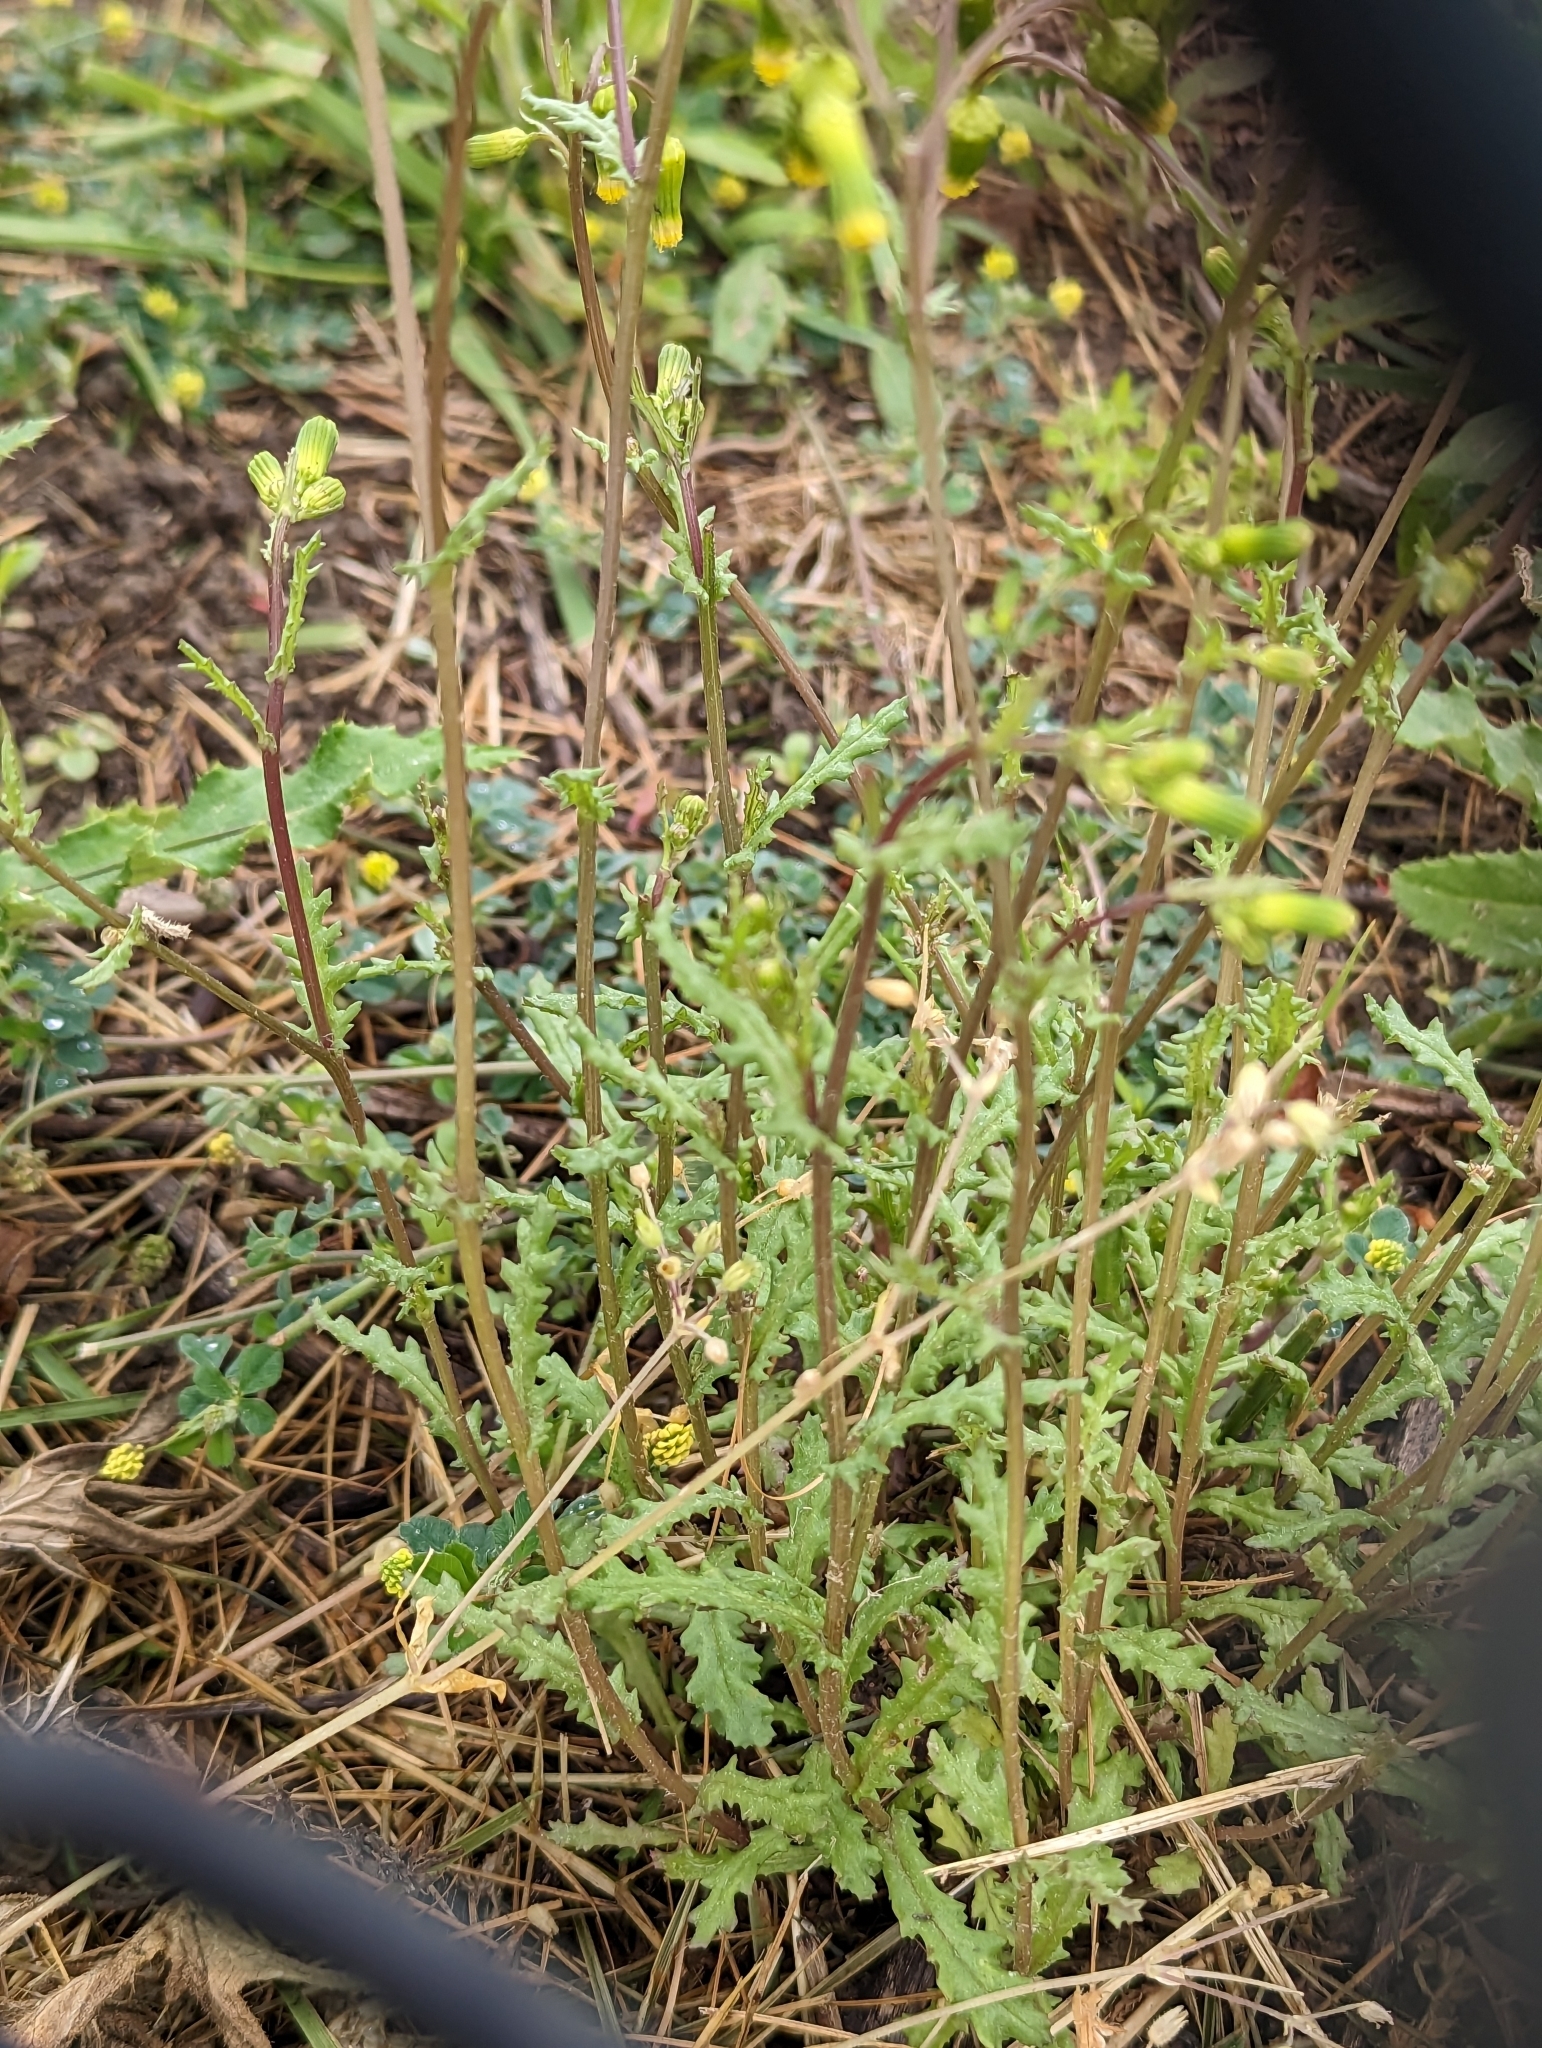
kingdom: Plantae
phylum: Tracheophyta
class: Magnoliopsida
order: Asterales
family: Asteraceae
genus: Senecio
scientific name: Senecio vulgaris
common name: Old-man-in-the-spring
